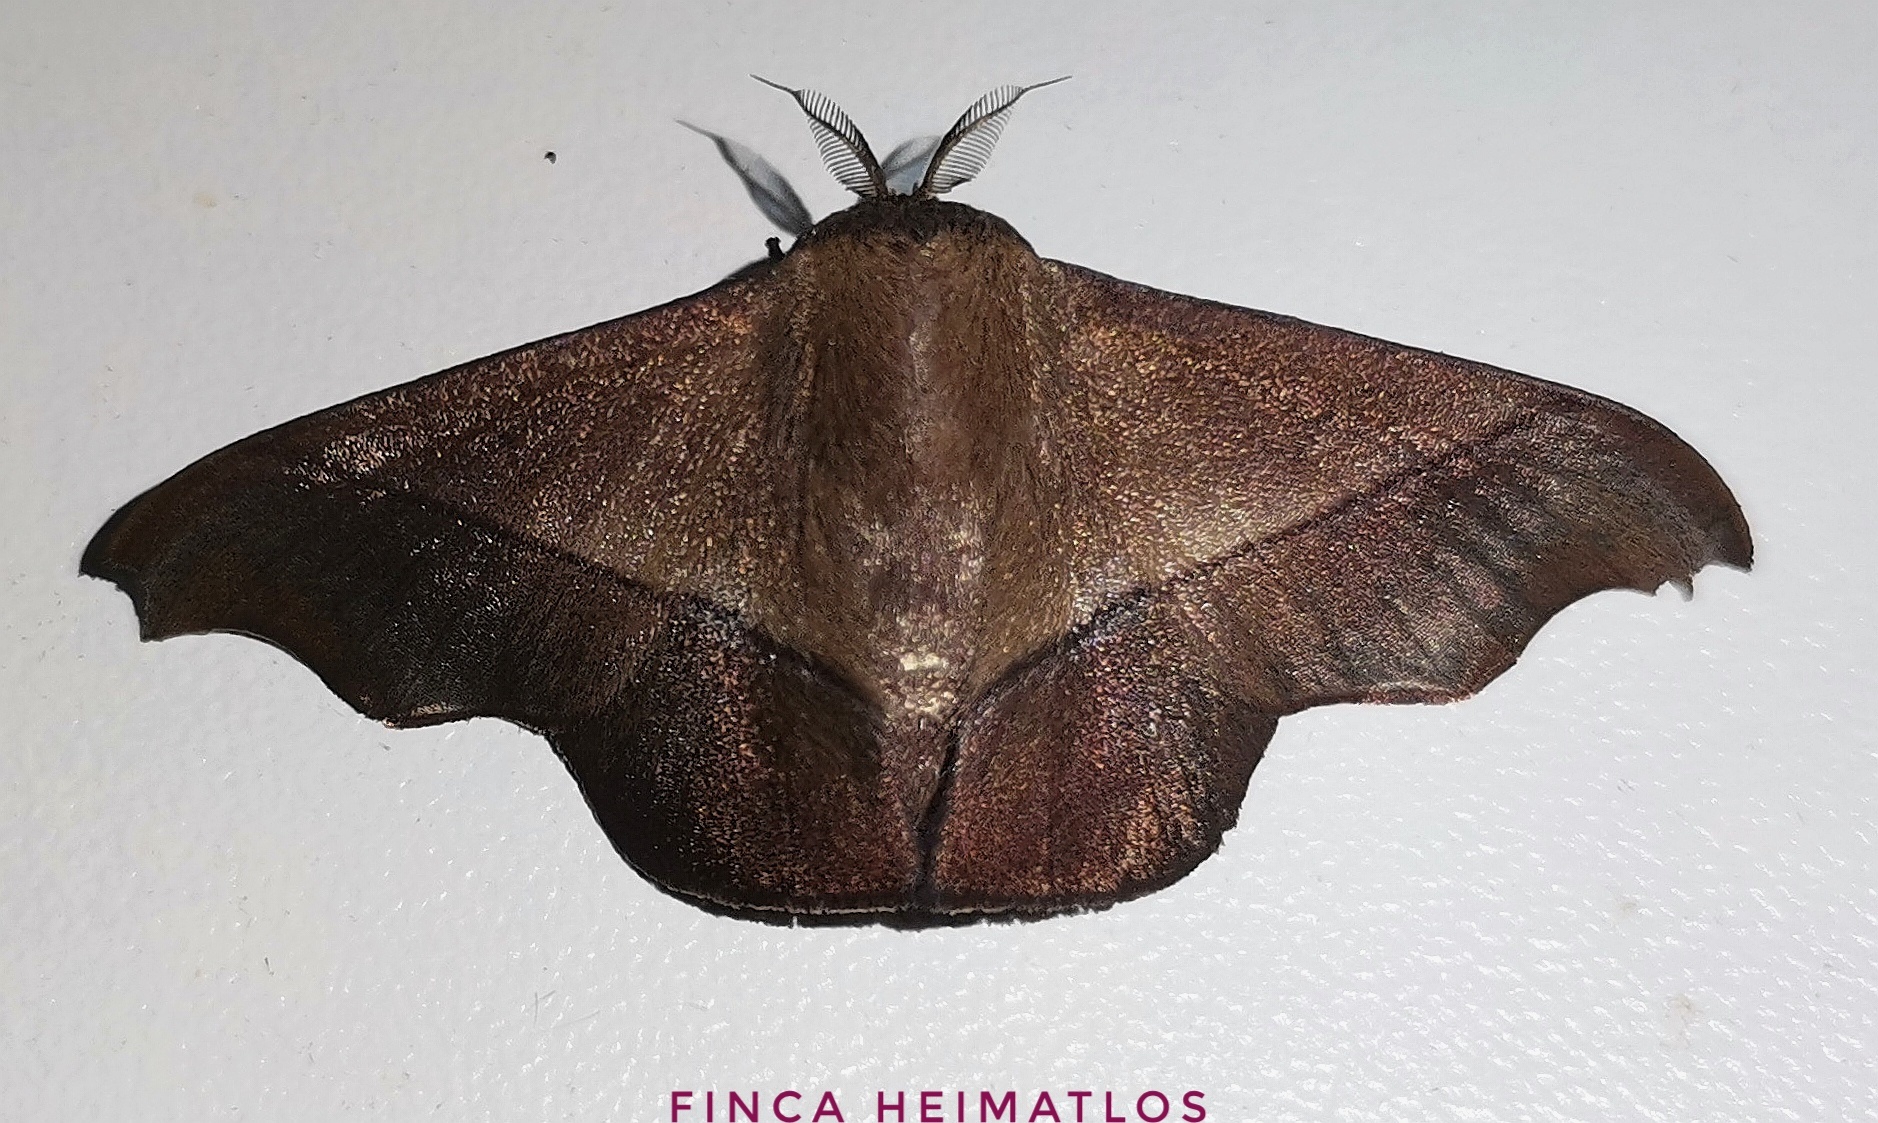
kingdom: Animalia
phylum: Arthropoda
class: Insecta
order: Lepidoptera
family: Mimallonidae
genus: Alheita
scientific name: Alheita subnotata
